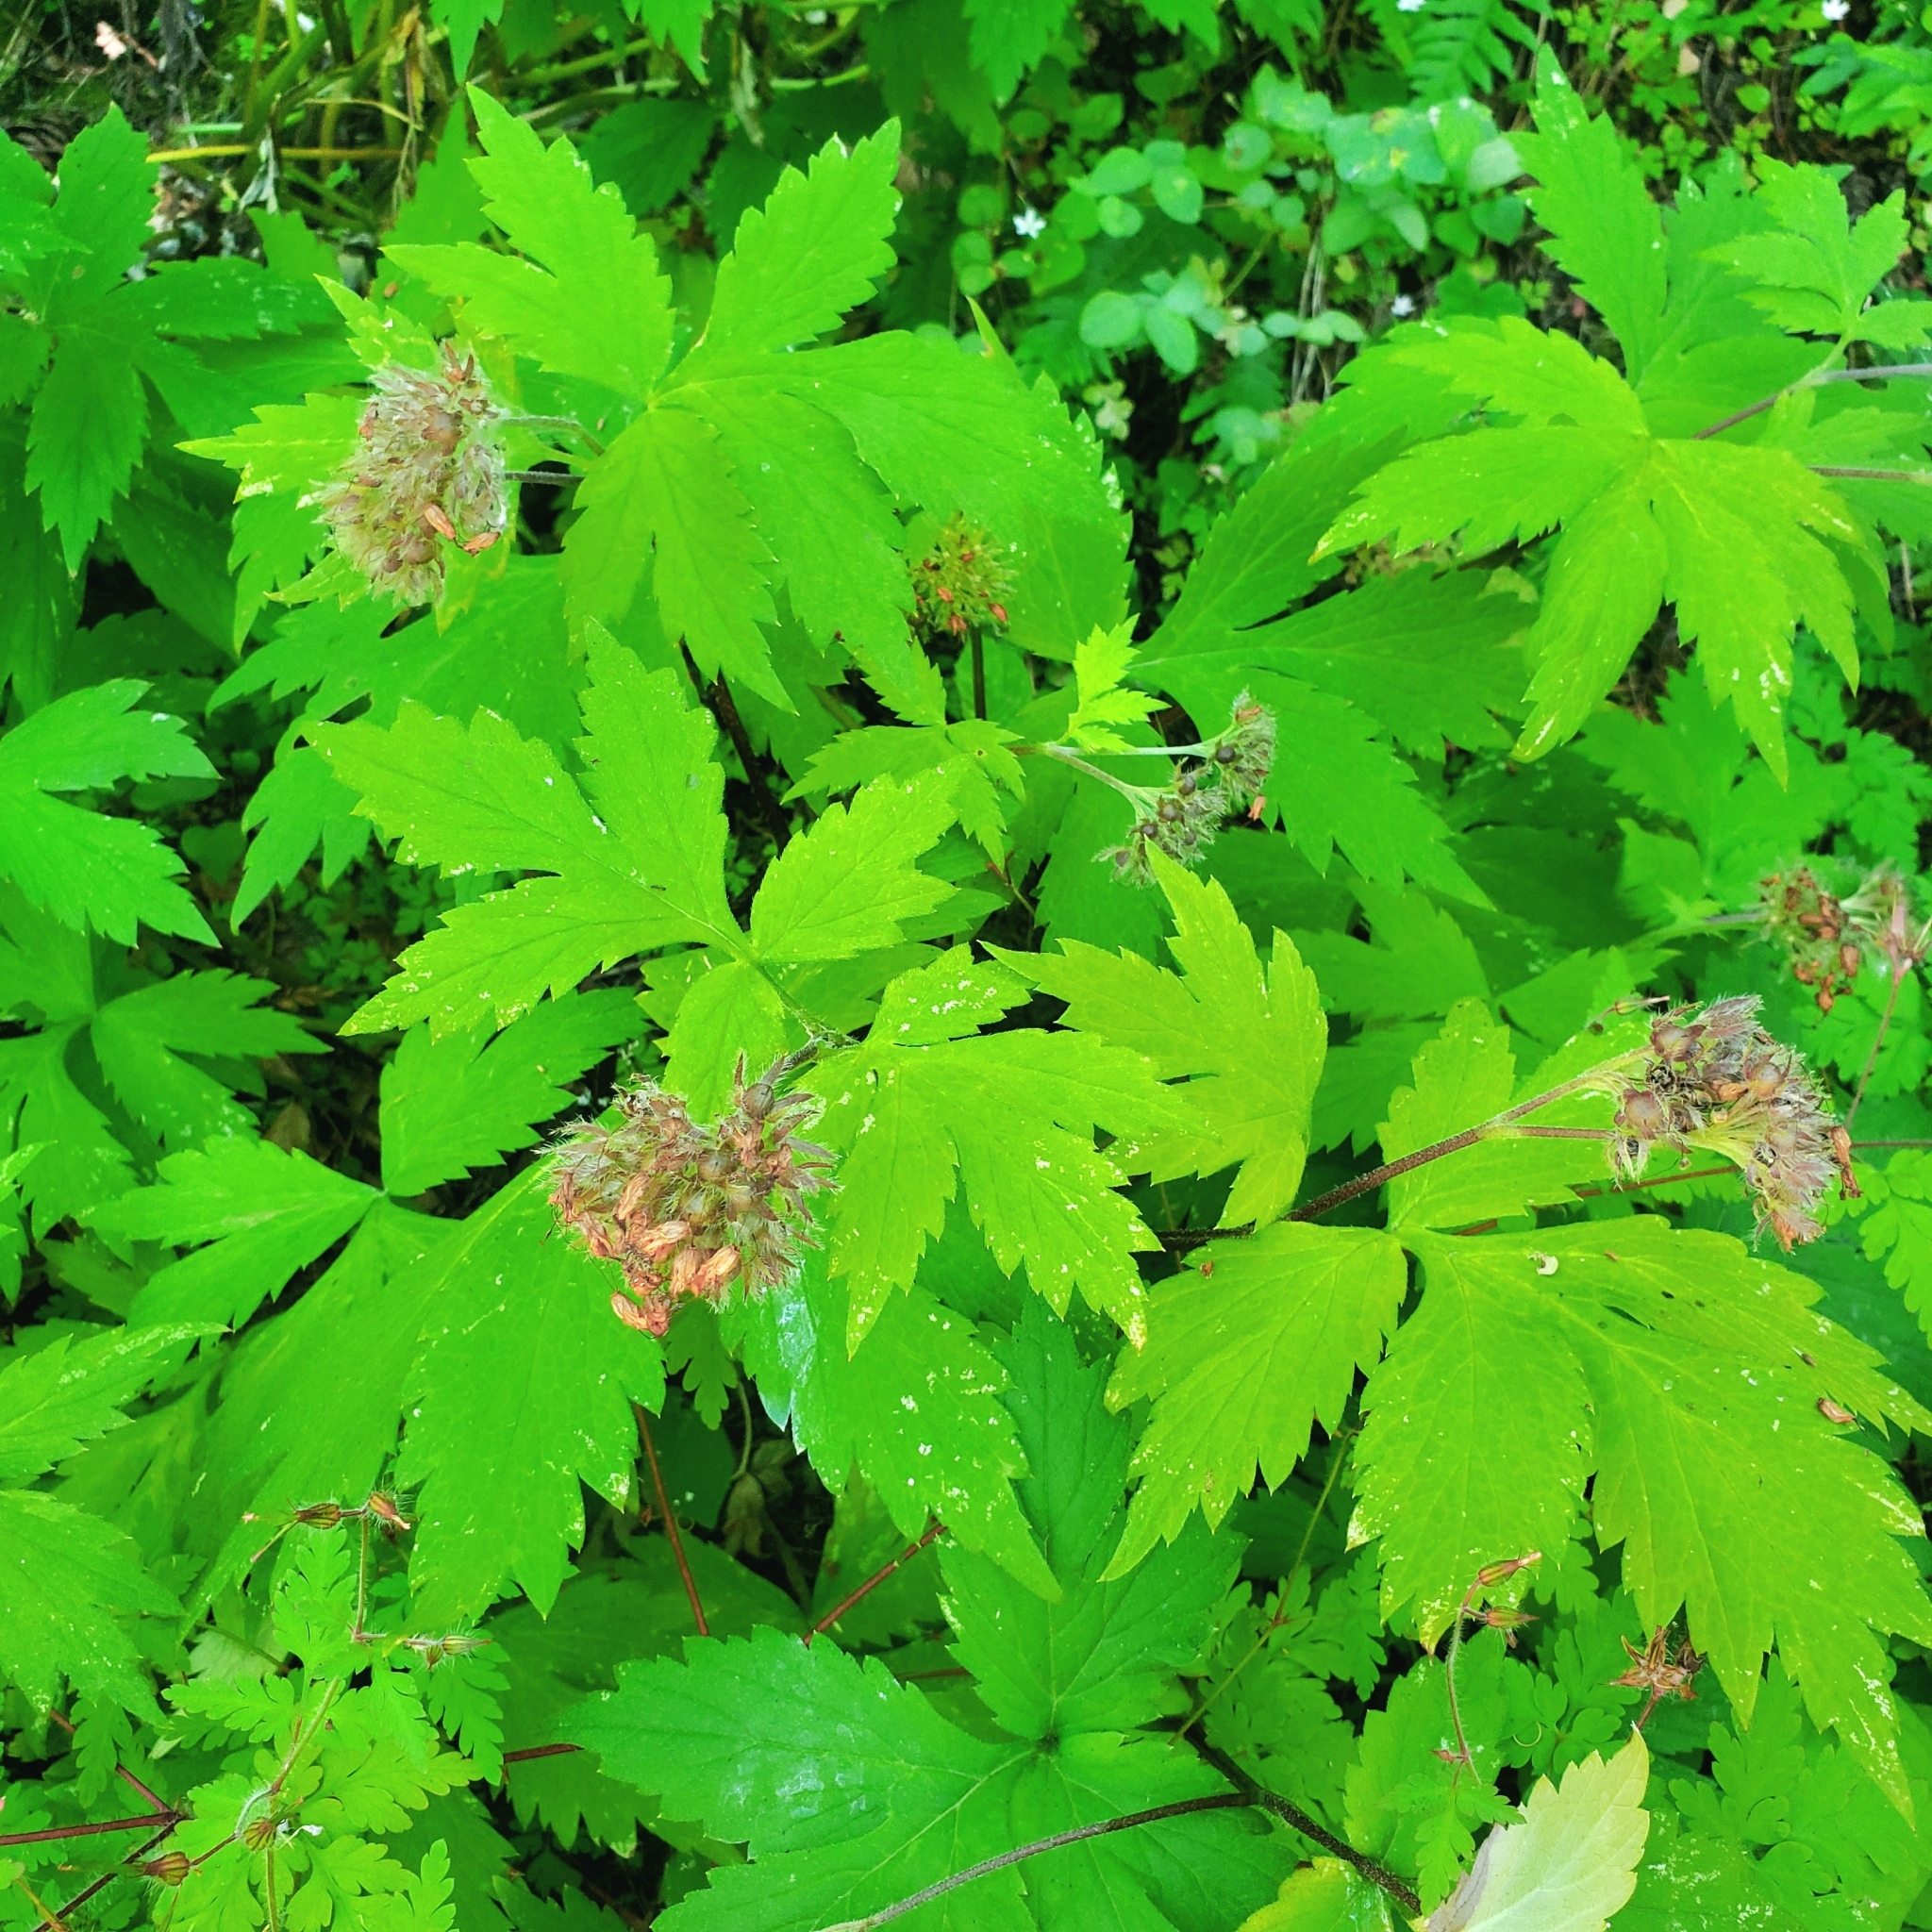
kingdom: Plantae
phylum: Tracheophyta
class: Magnoliopsida
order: Boraginales
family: Hydrophyllaceae
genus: Hydrophyllum
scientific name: Hydrophyllum tenuipes
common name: Pacific waterleaf
